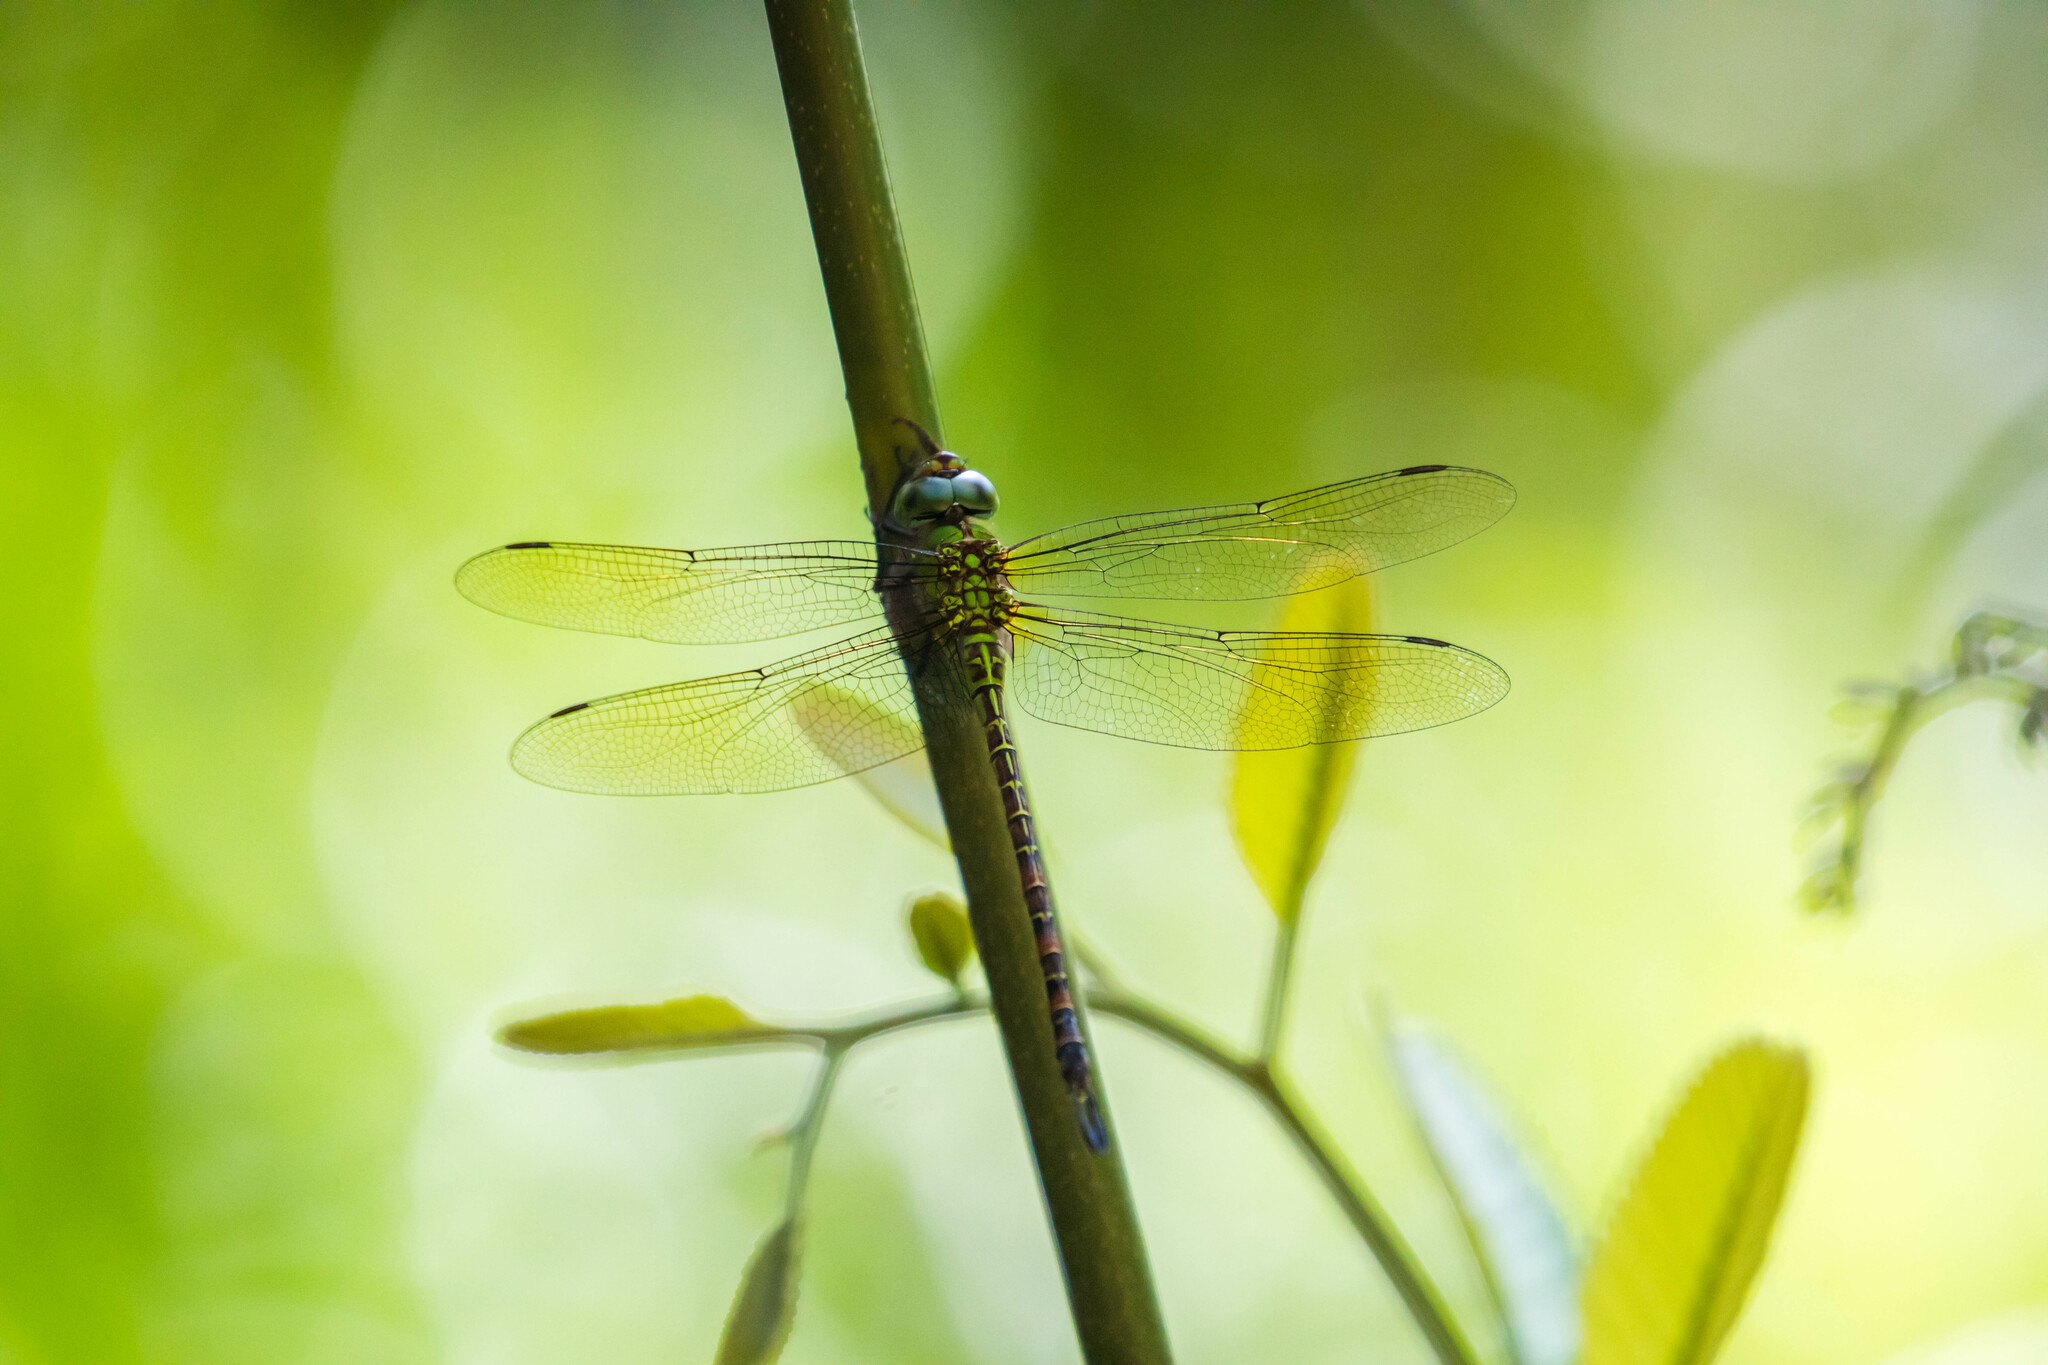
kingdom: Animalia
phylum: Arthropoda
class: Insecta
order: Odonata
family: Aeshnidae
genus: Coryphaeschna
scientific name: Coryphaeschna adnexa
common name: Blue-faced darner
